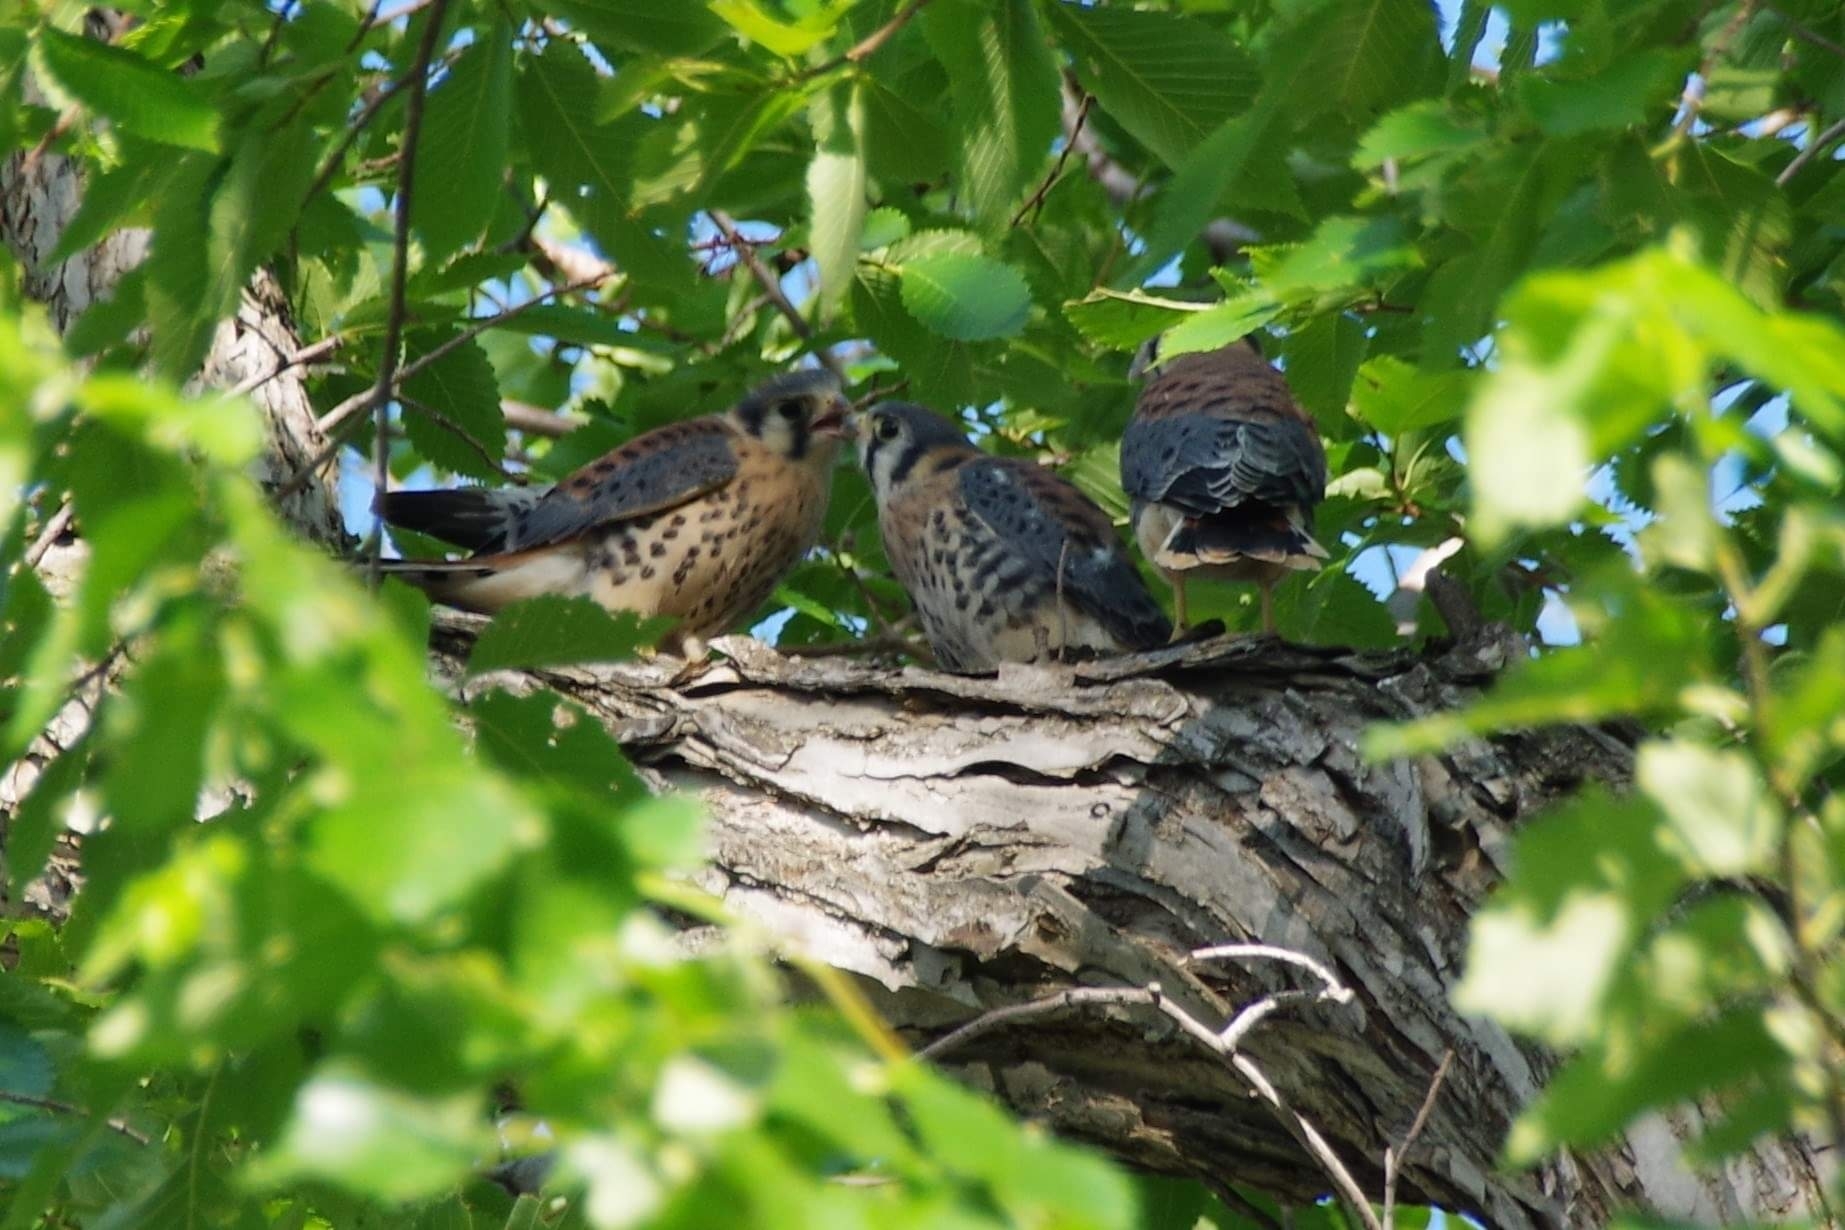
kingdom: Animalia
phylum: Chordata
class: Aves
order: Falconiformes
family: Falconidae
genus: Falco
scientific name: Falco sparverius
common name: American kestrel
